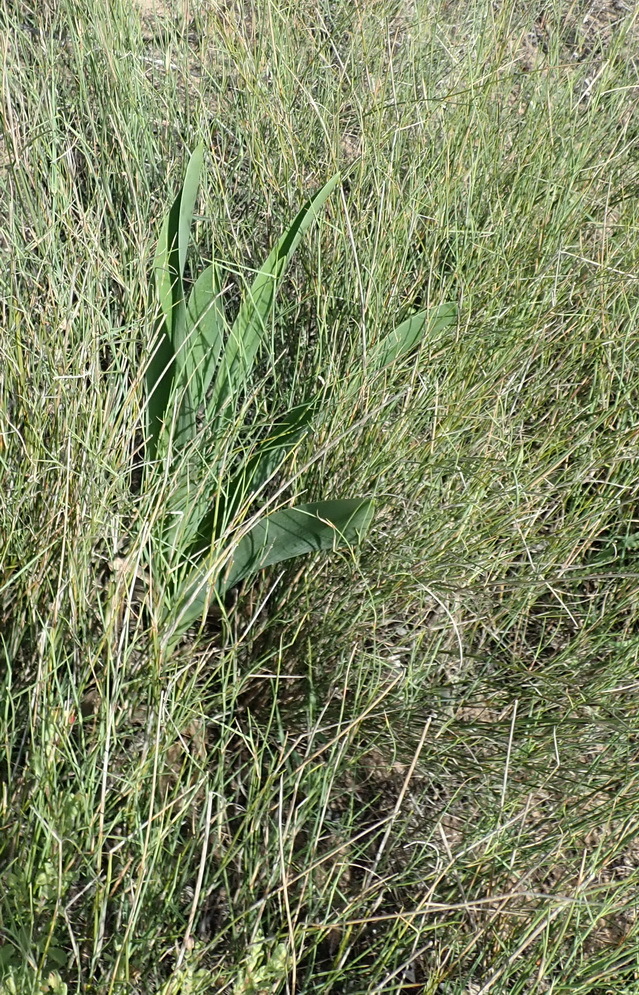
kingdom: Plantae
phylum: Tracheophyta
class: Liliopsida
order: Asparagales
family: Asparagaceae
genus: Drimia
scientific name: Drimia capensis
